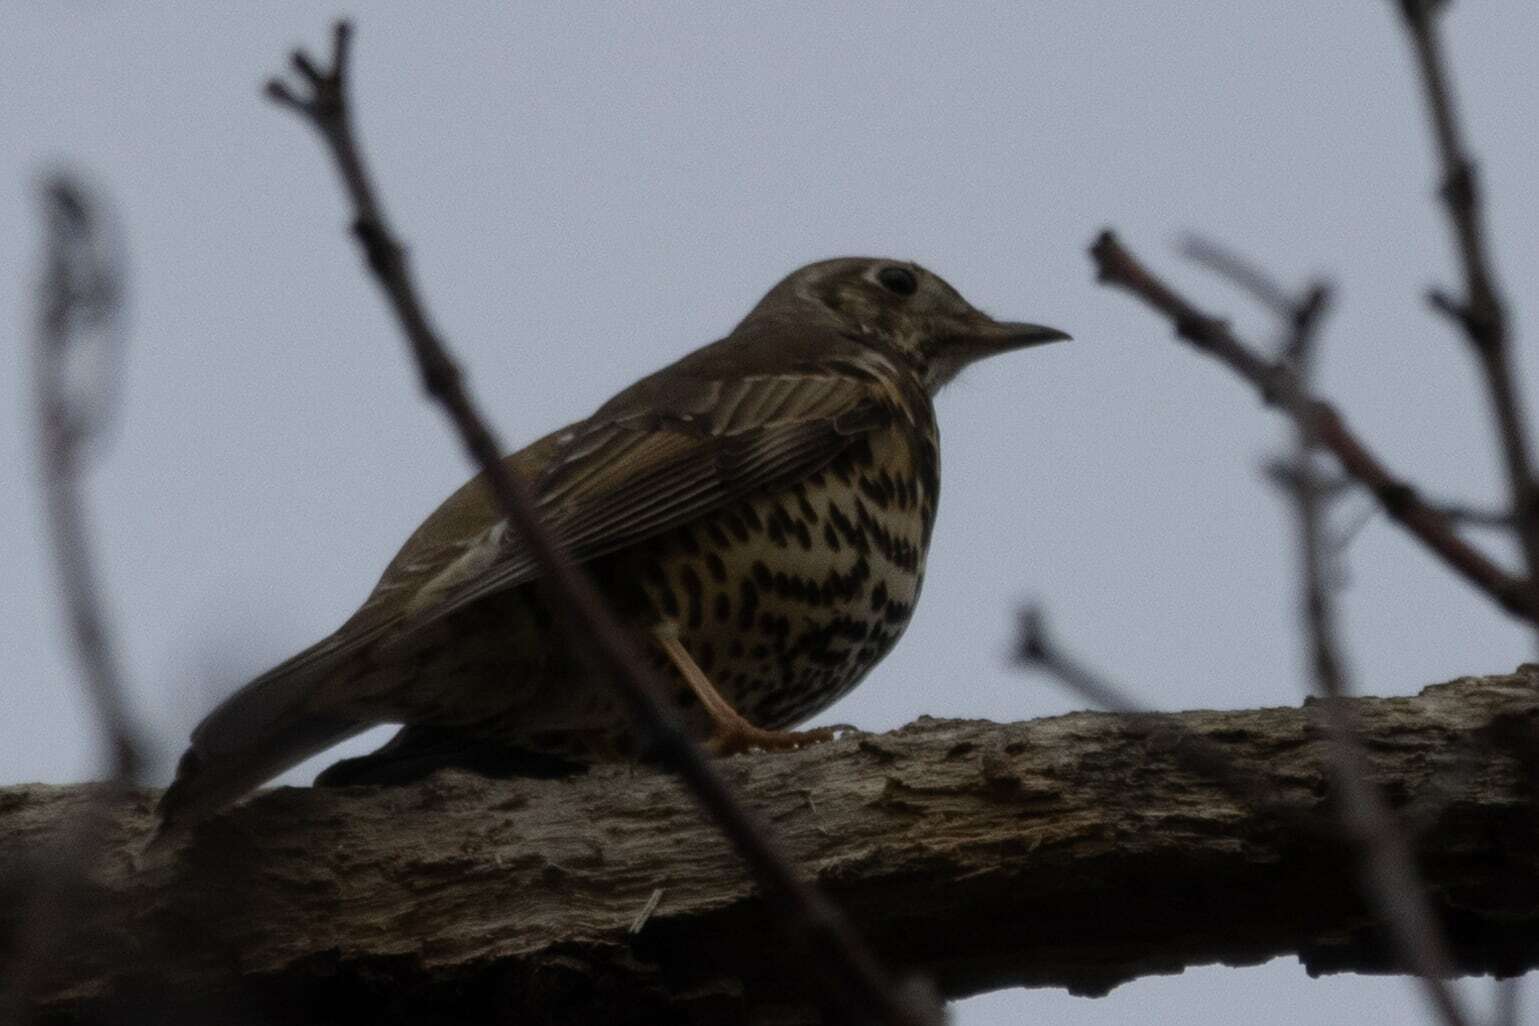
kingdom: Animalia
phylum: Chordata
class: Aves
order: Passeriformes
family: Turdidae
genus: Turdus
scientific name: Turdus viscivorus
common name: Mistle thrush
